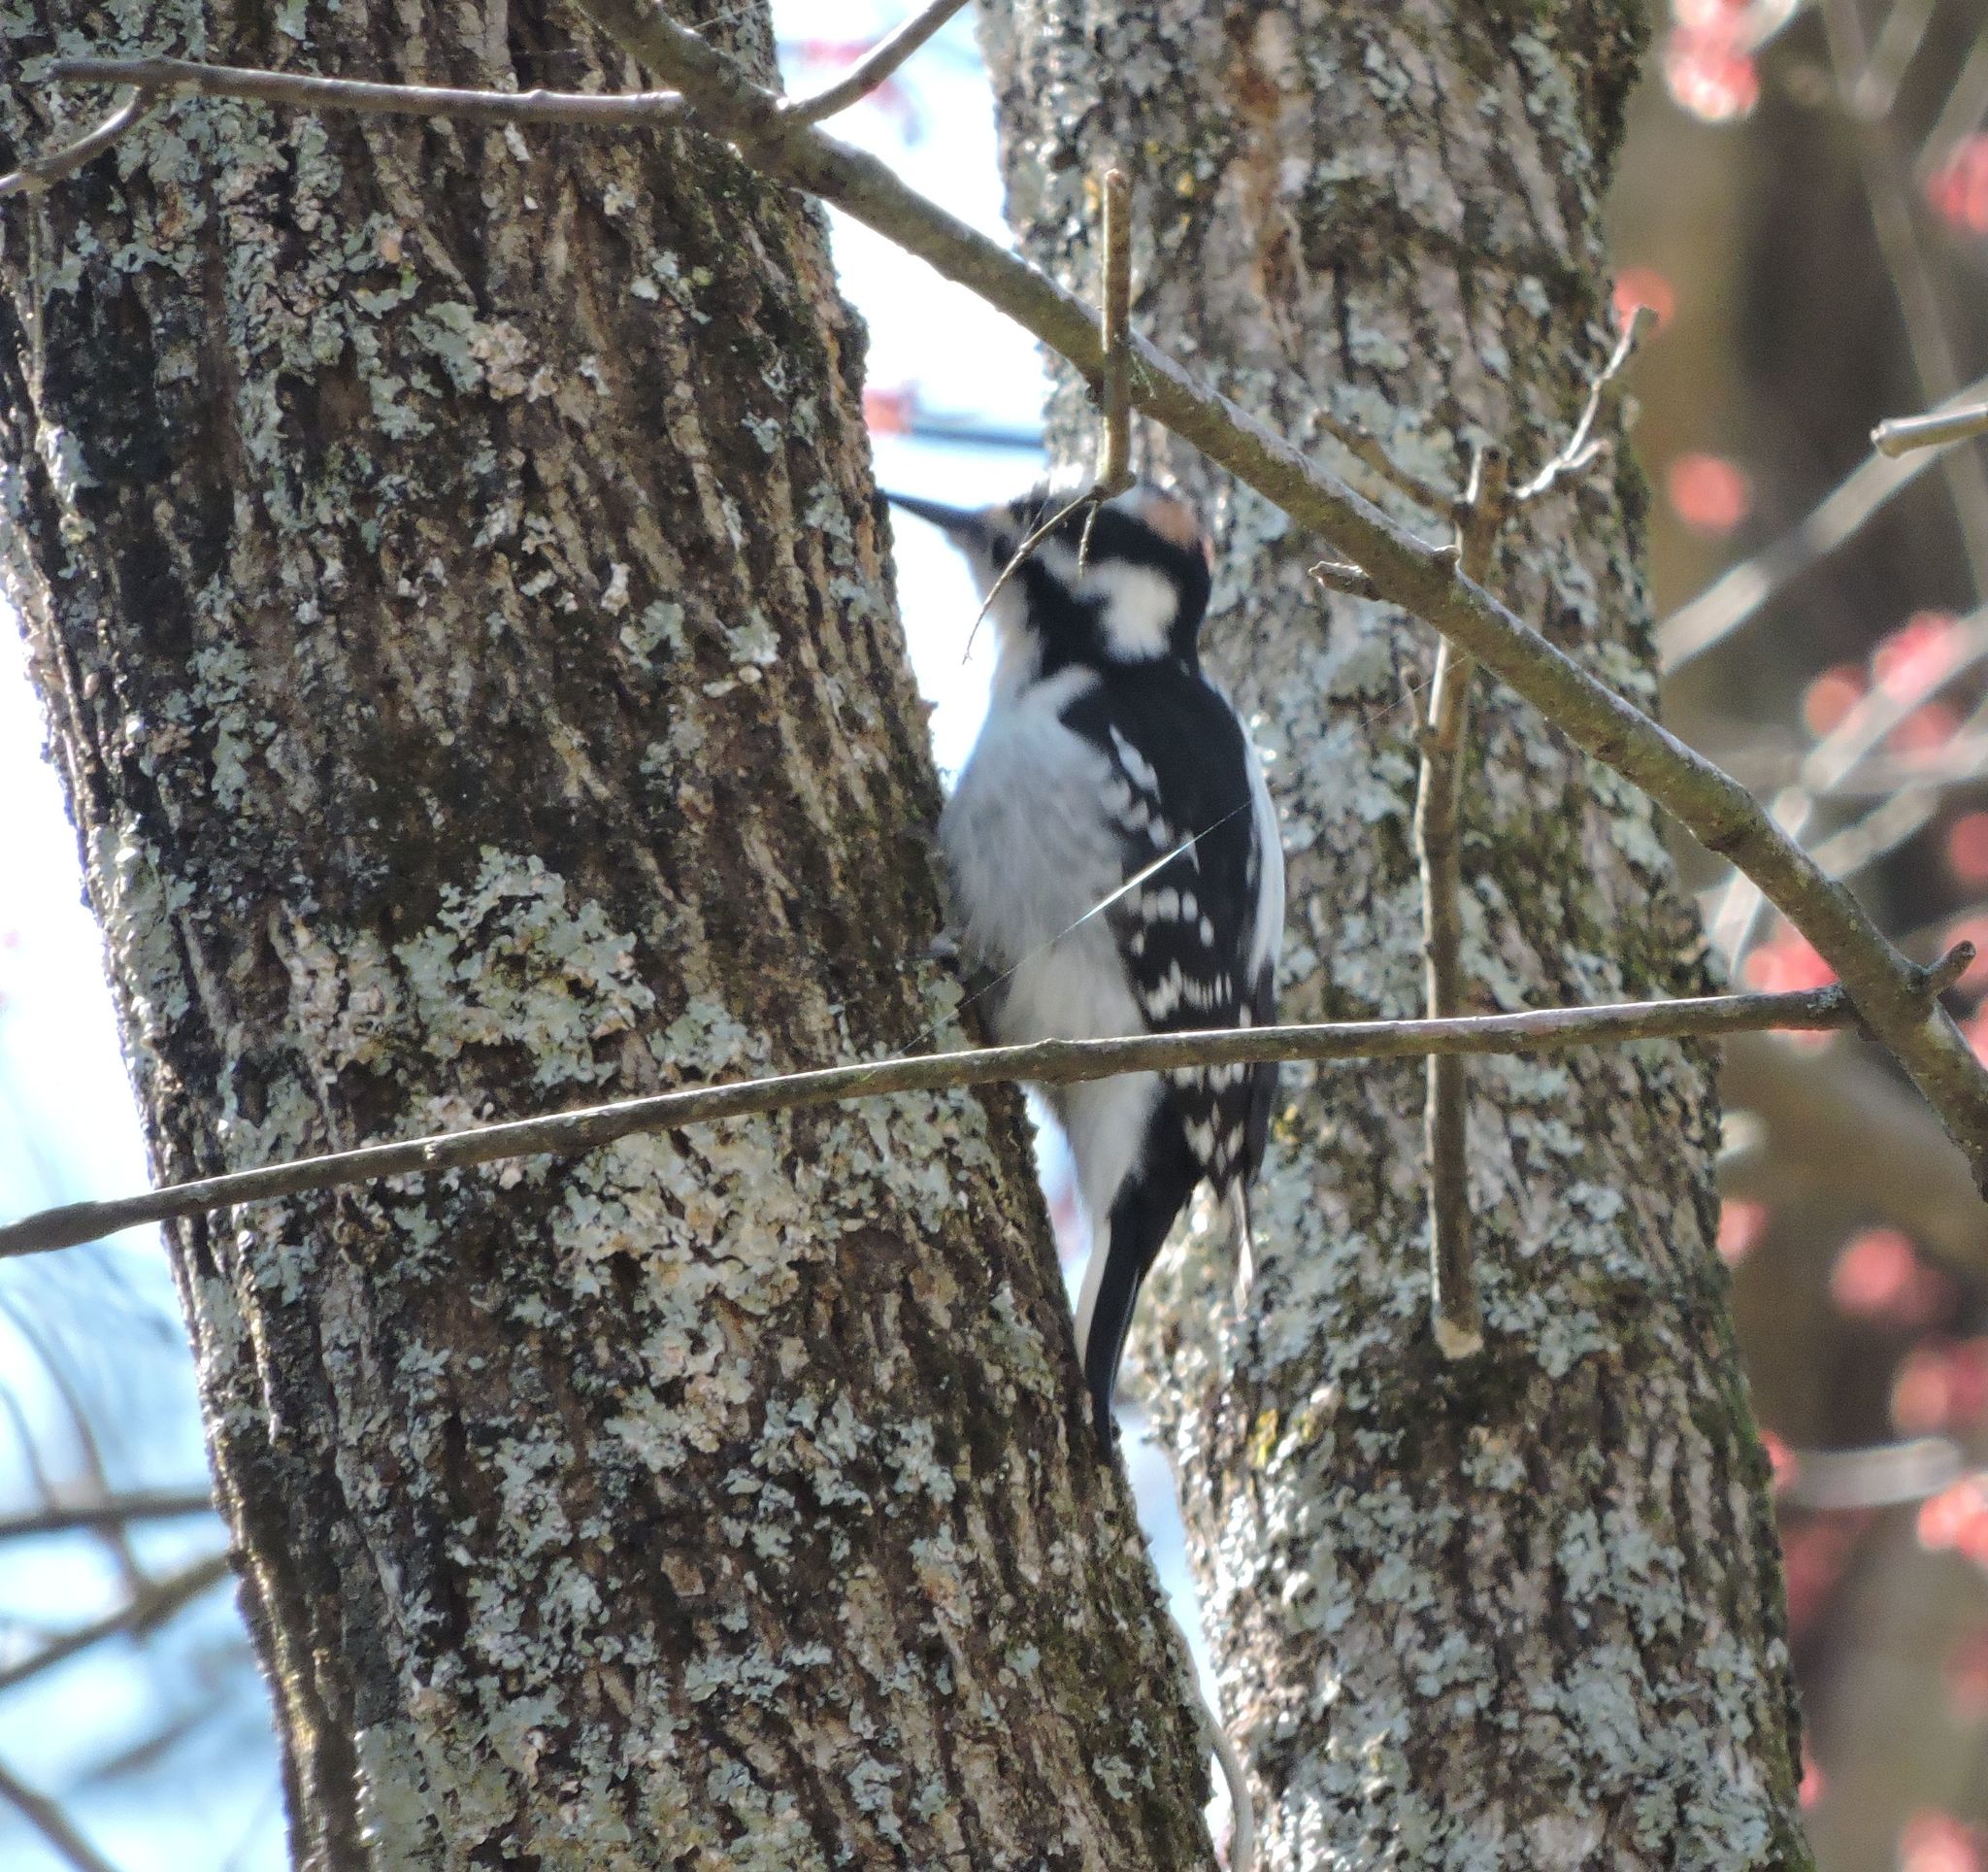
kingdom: Animalia
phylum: Chordata
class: Aves
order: Piciformes
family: Picidae
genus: Dryobates
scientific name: Dryobates pubescens
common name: Downy woodpecker
